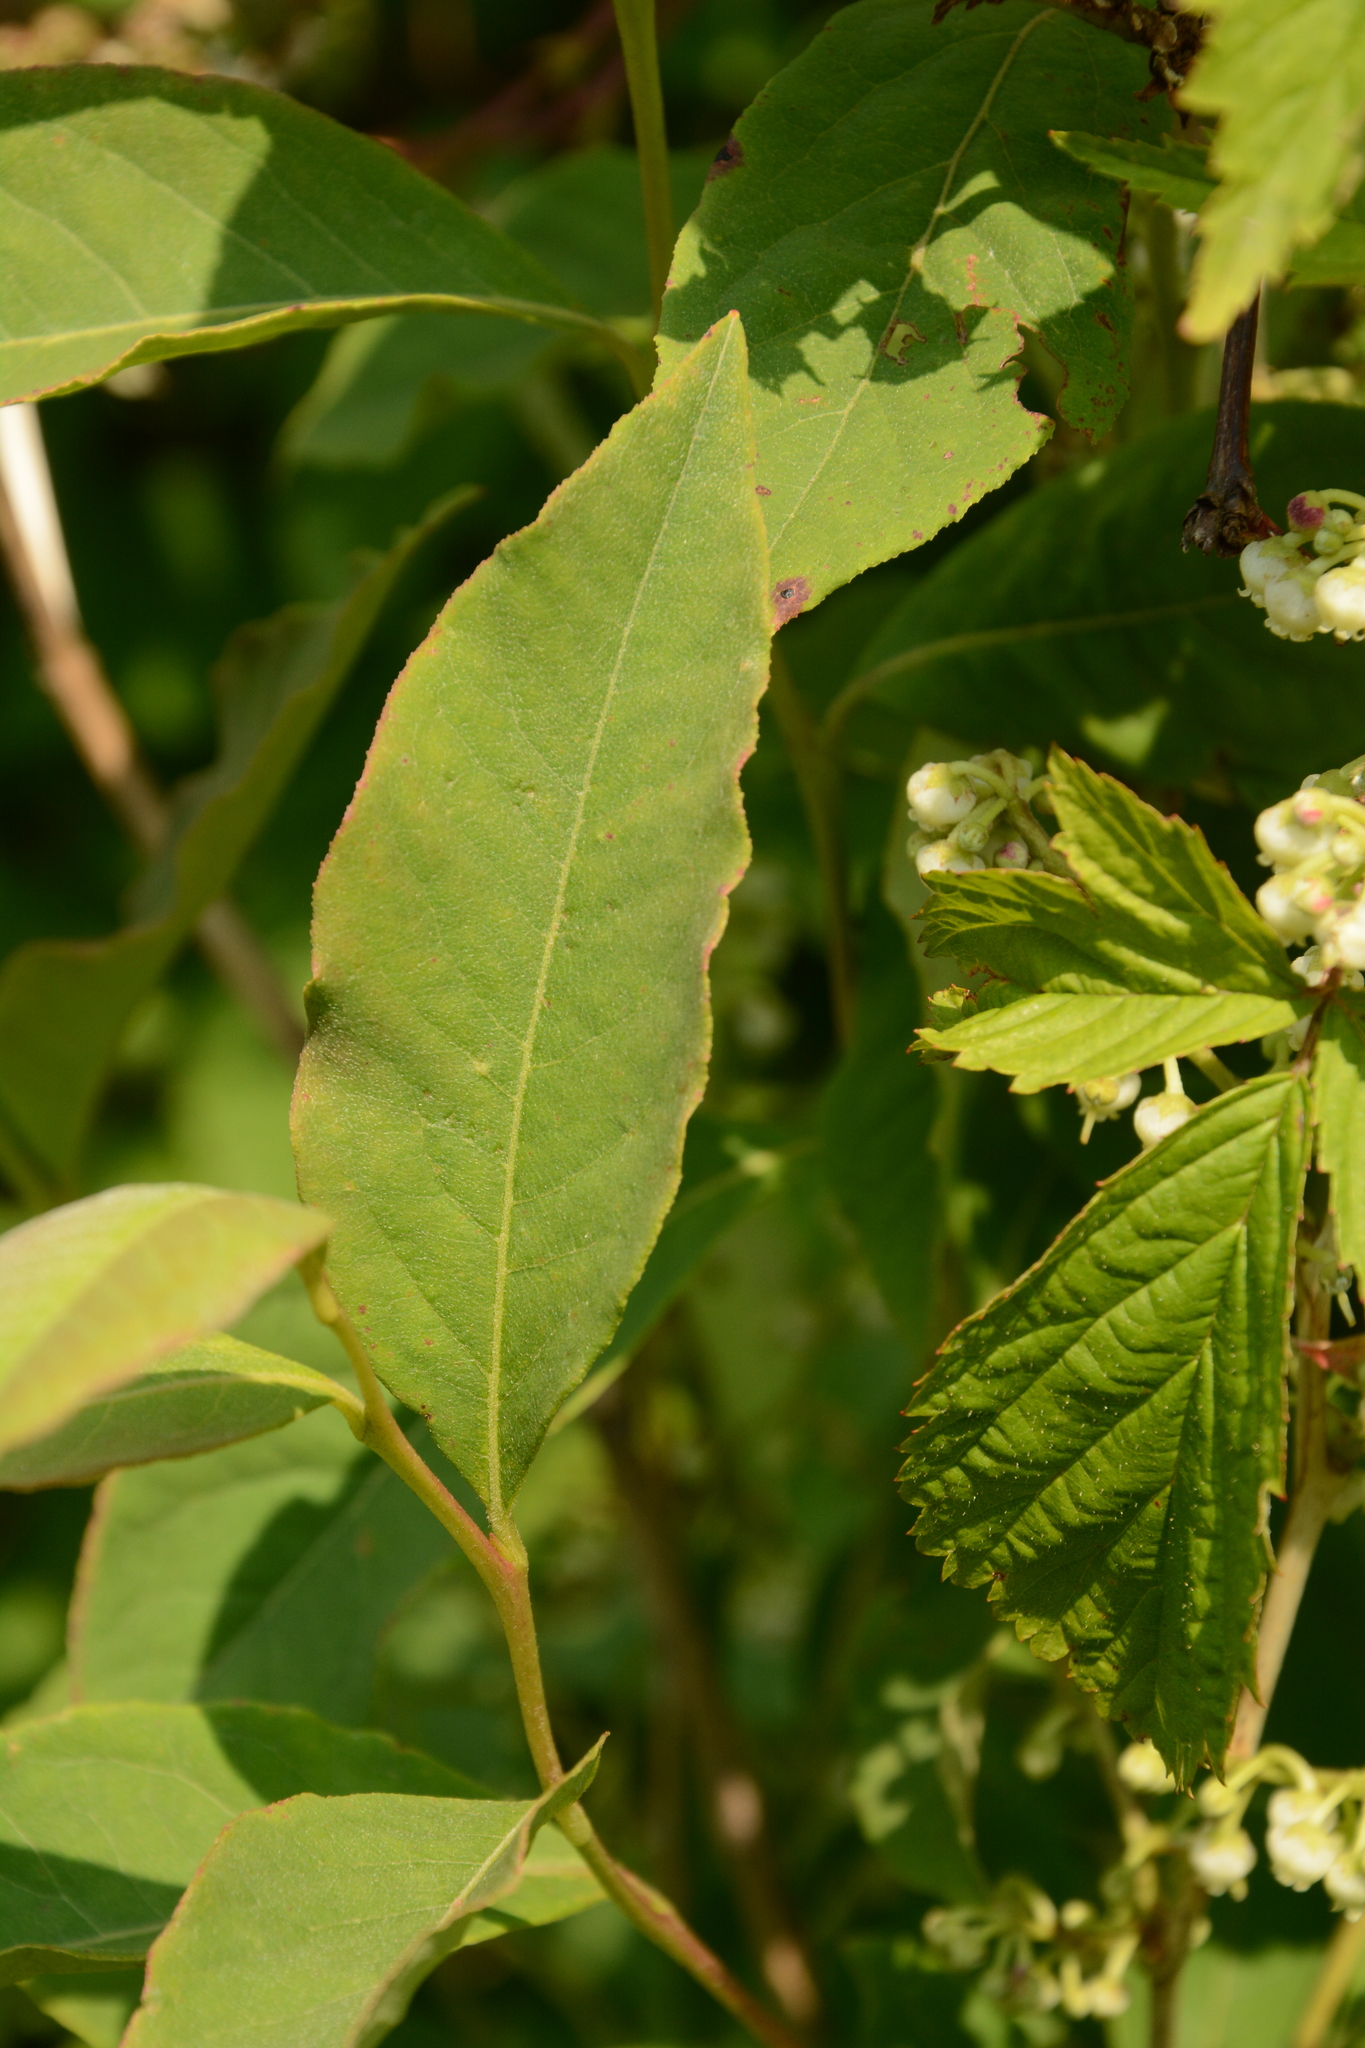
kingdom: Plantae
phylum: Tracheophyta
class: Magnoliopsida
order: Ericales
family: Ericaceae
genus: Lyonia
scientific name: Lyonia ligustrina
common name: Maleberry
